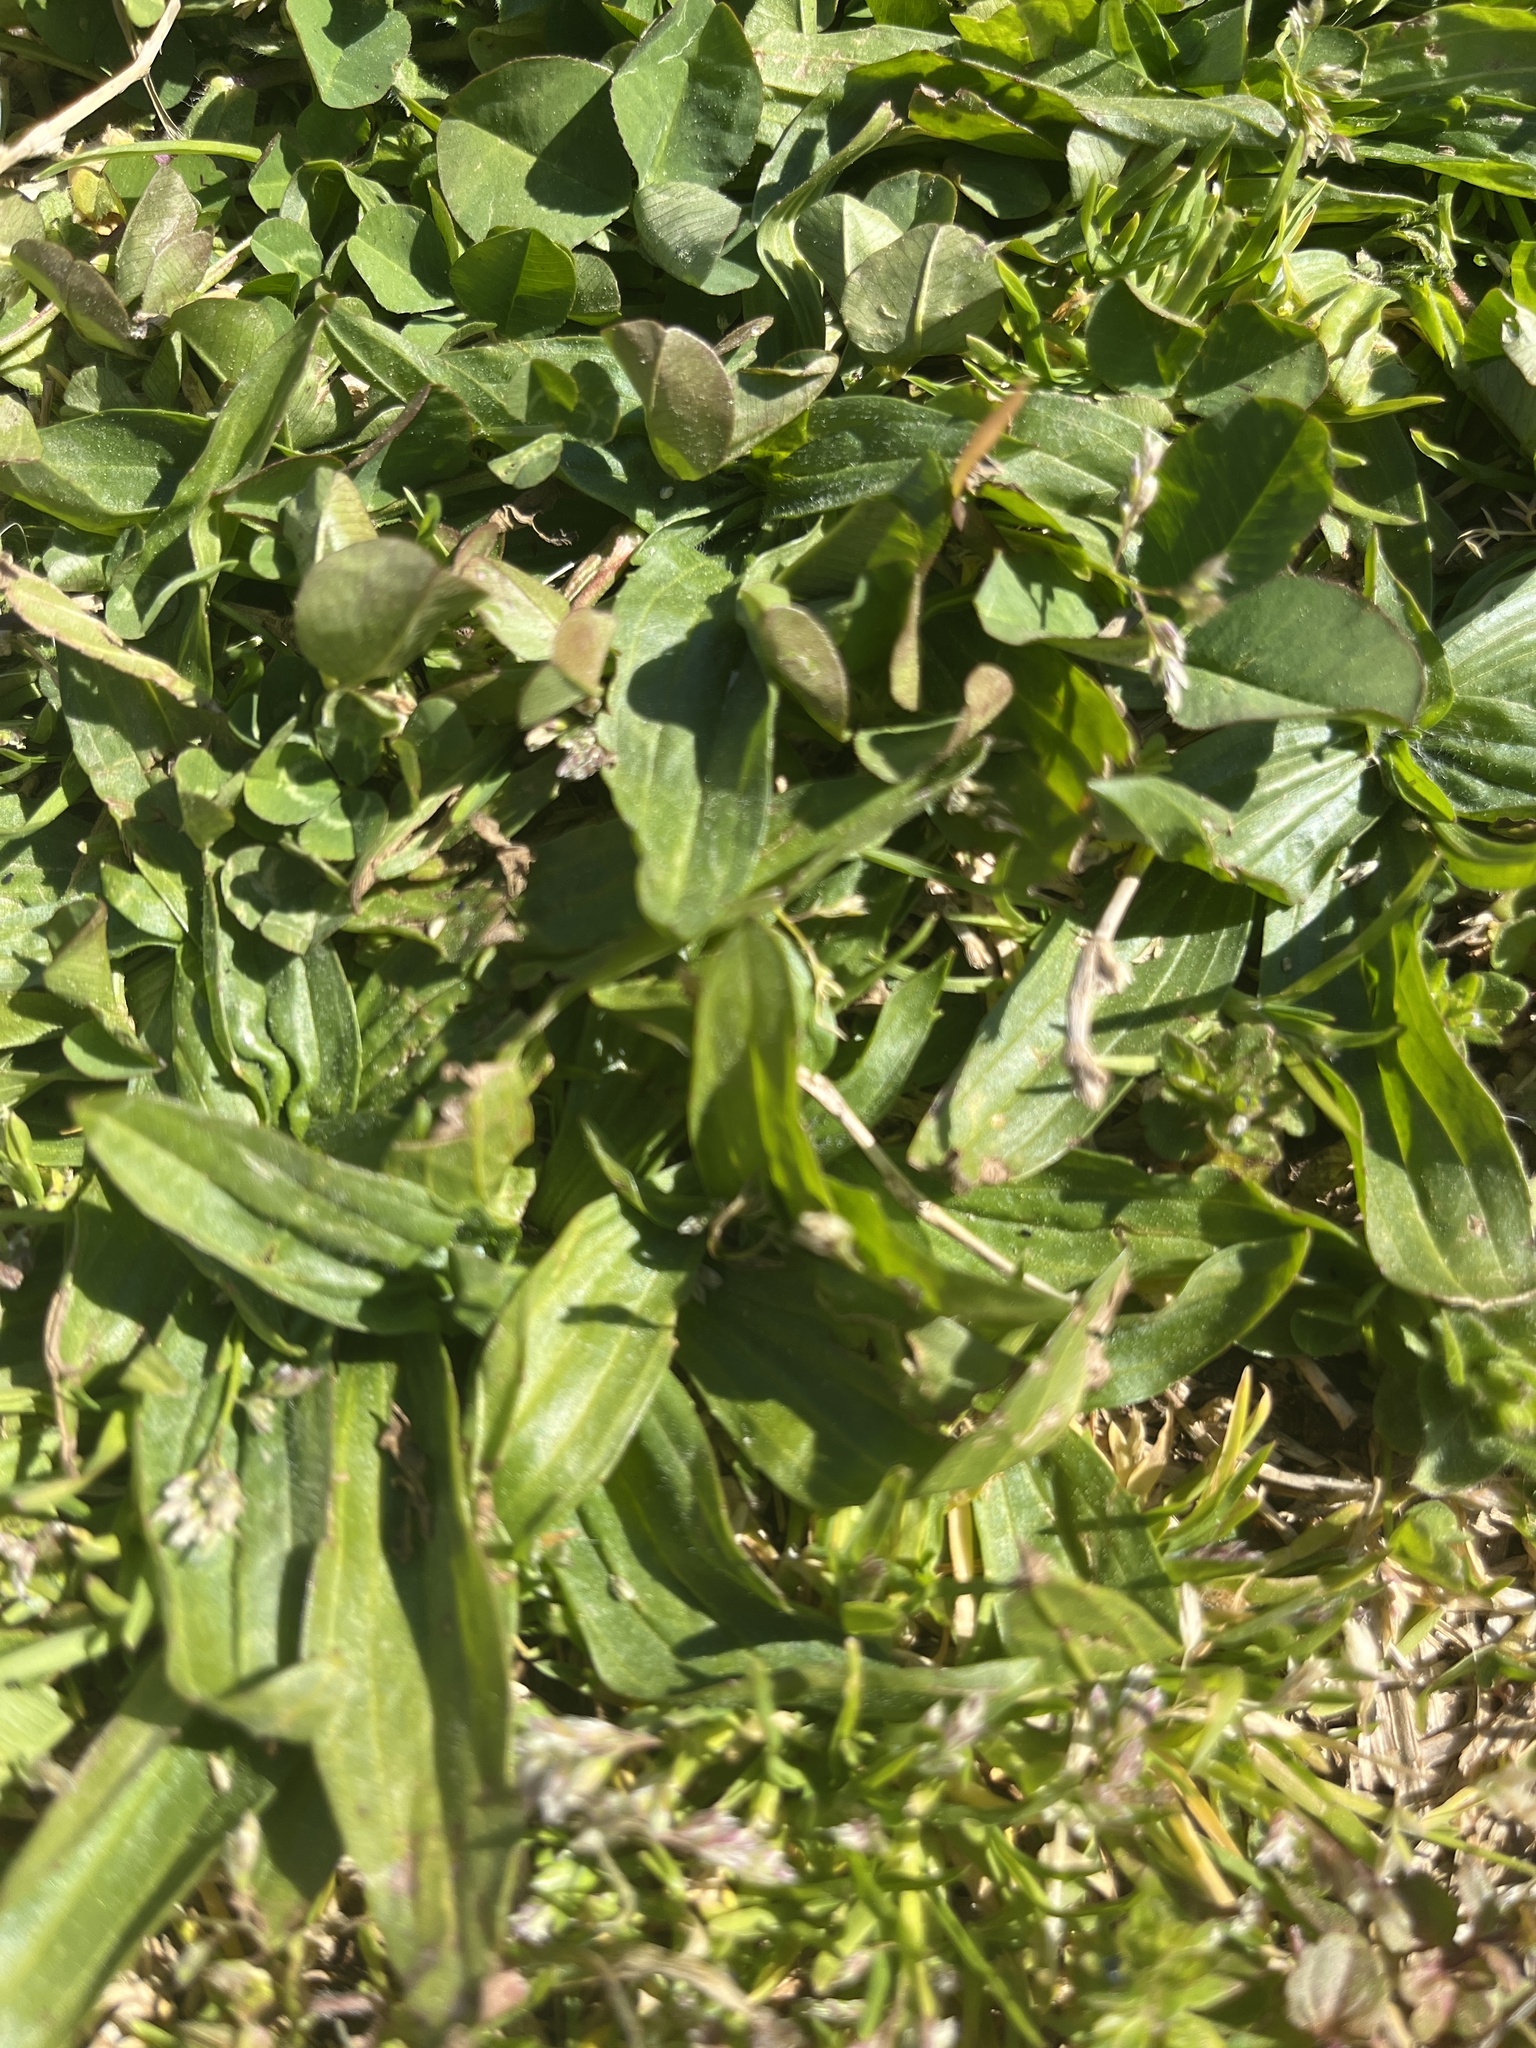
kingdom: Plantae
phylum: Tracheophyta
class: Magnoliopsida
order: Lamiales
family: Plantaginaceae
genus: Plantago
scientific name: Plantago lanceolata
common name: Ribwort plantain
